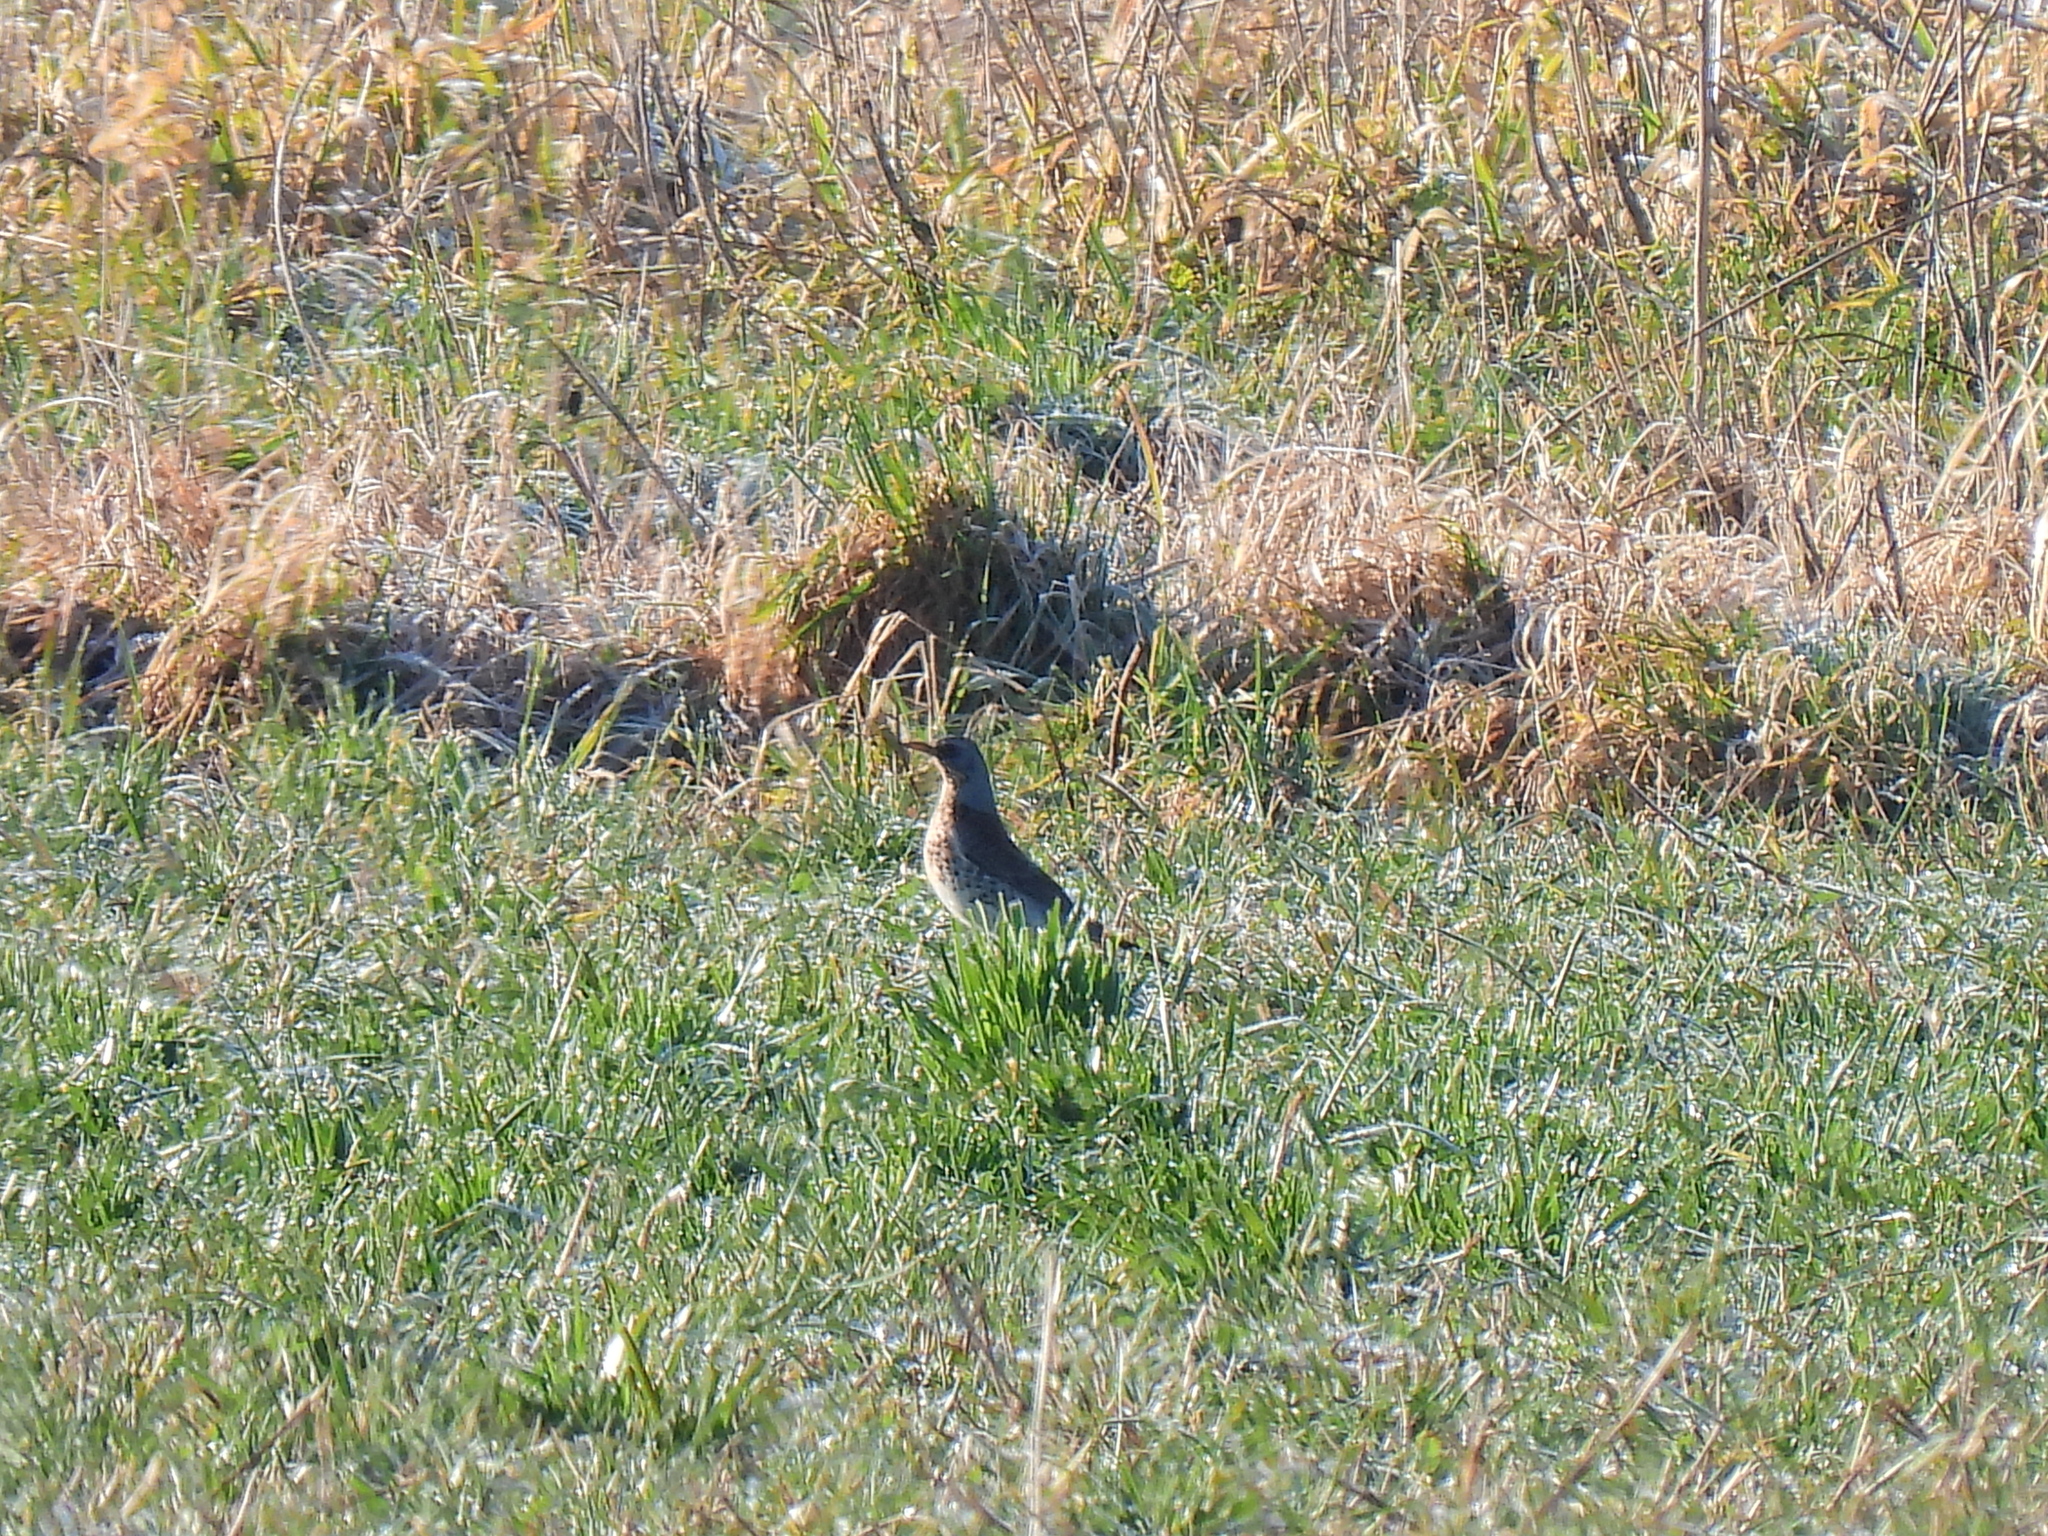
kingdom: Animalia
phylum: Chordata
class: Aves
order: Passeriformes
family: Turdidae
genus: Turdus
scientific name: Turdus pilaris
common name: Fieldfare
